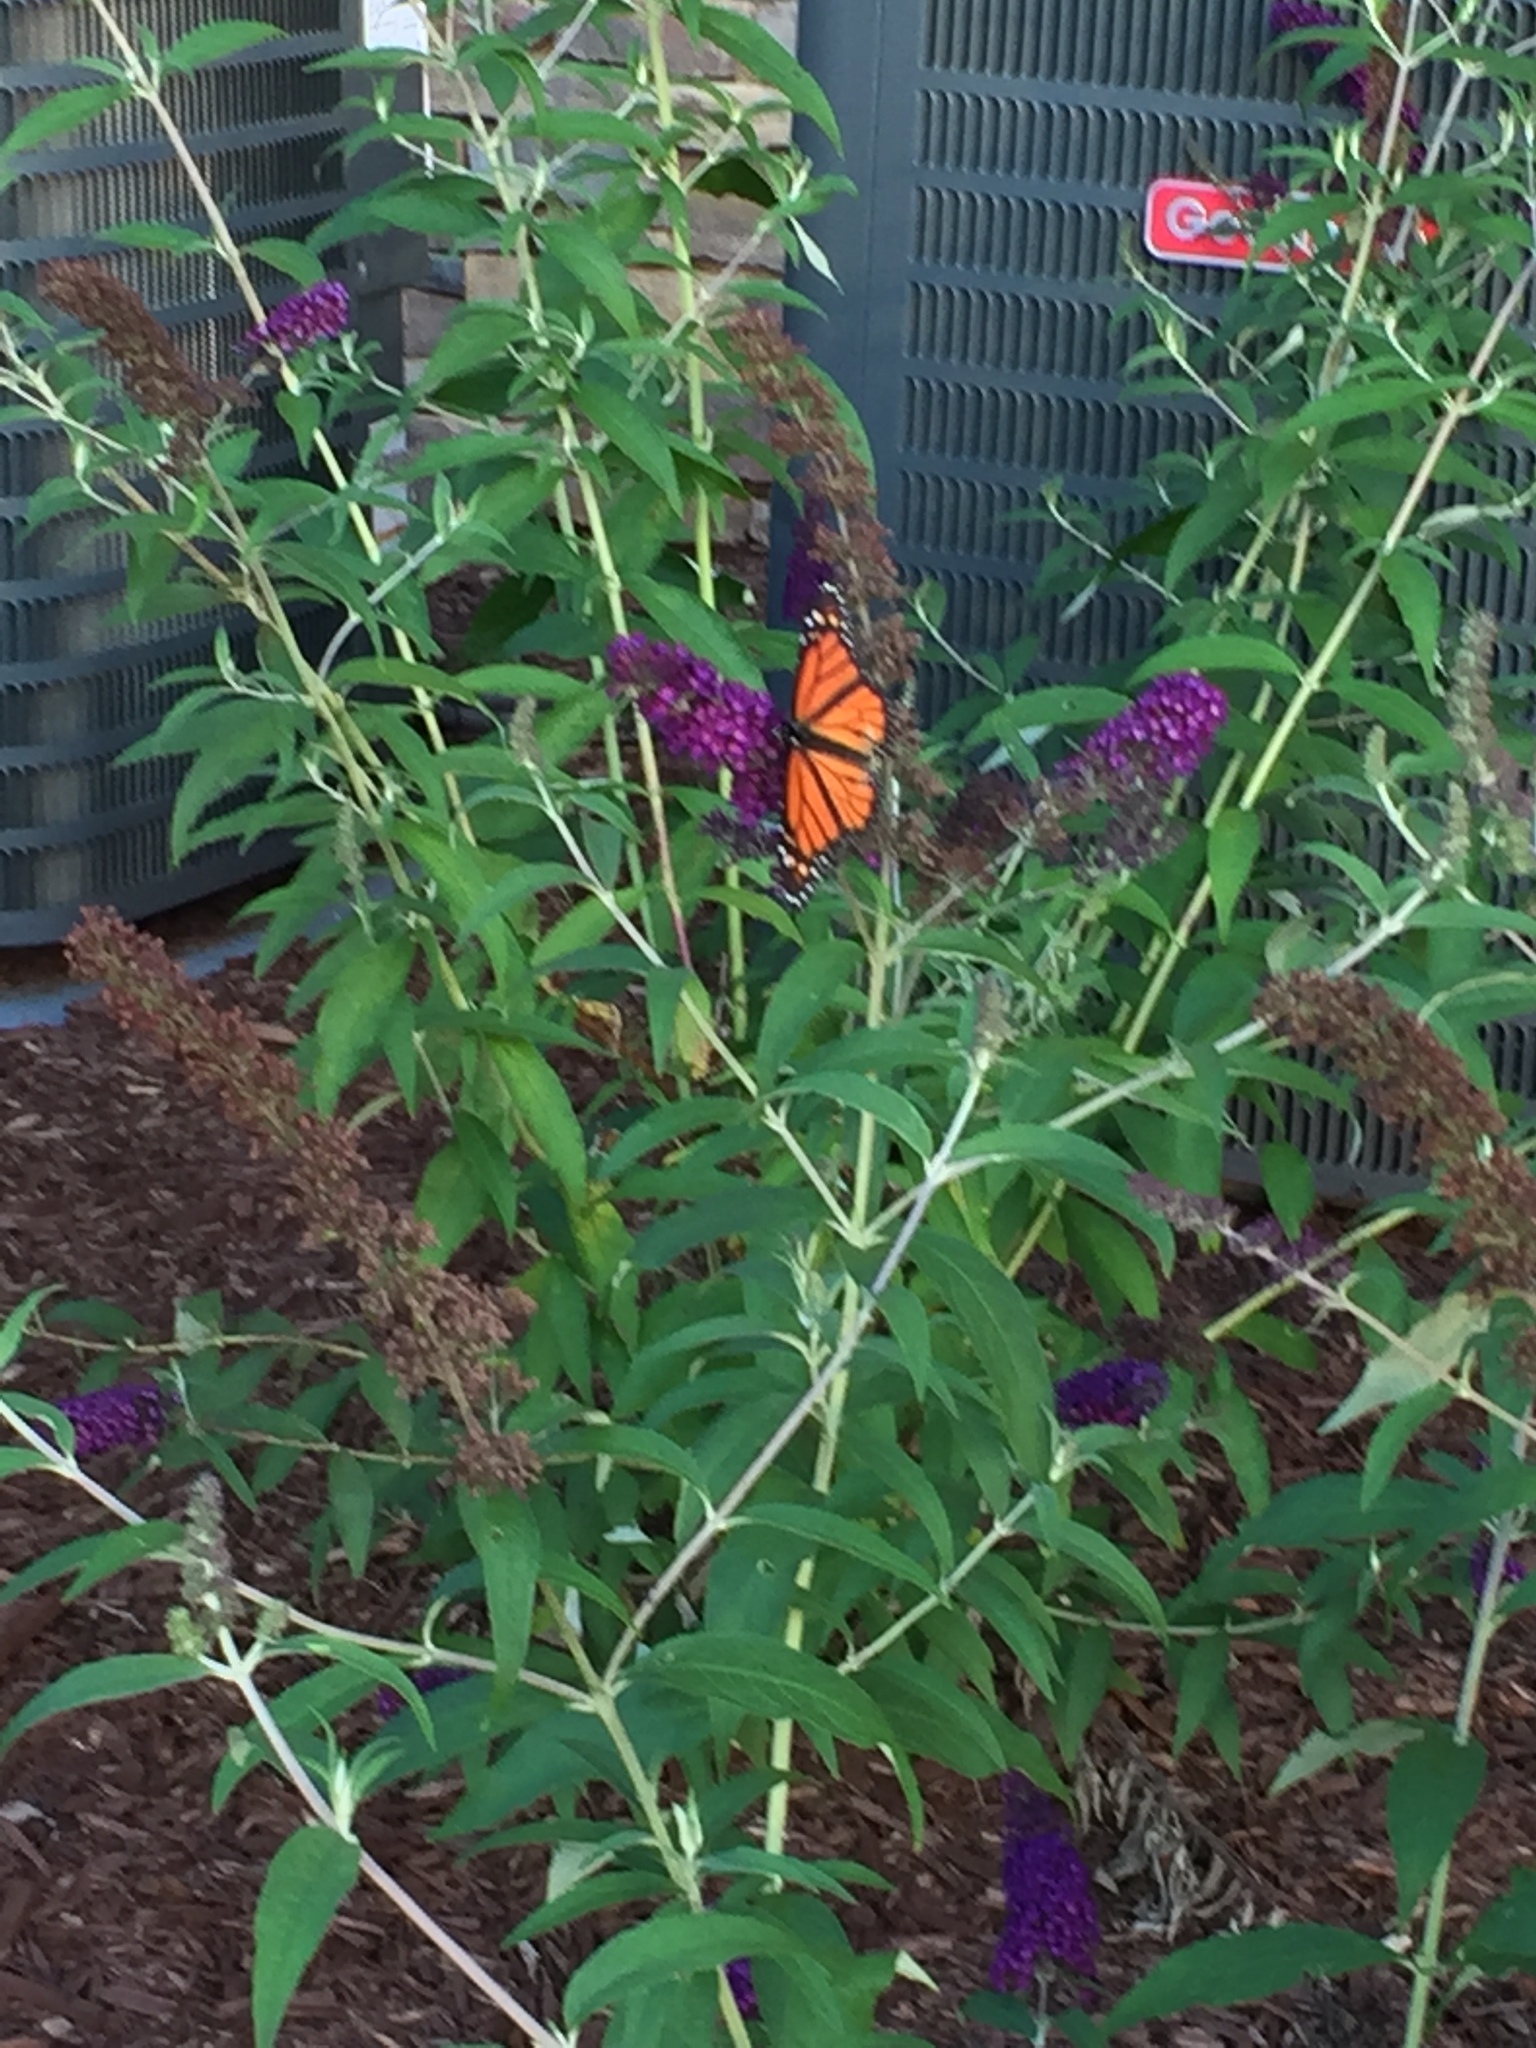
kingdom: Animalia
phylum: Arthropoda
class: Insecta
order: Lepidoptera
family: Nymphalidae
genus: Danaus
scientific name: Danaus plexippus
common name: Monarch
